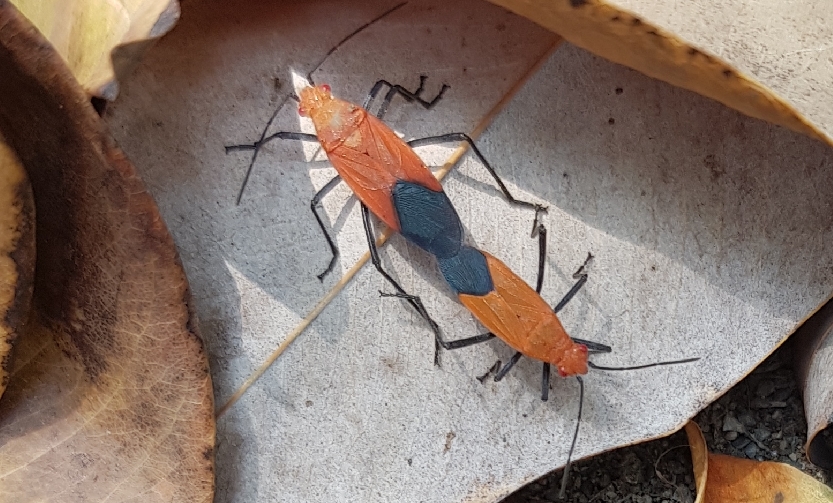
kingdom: Animalia
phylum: Arthropoda
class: Insecta
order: Hemiptera
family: Rhopalidae
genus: Leptocoris
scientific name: Leptocoris augur
